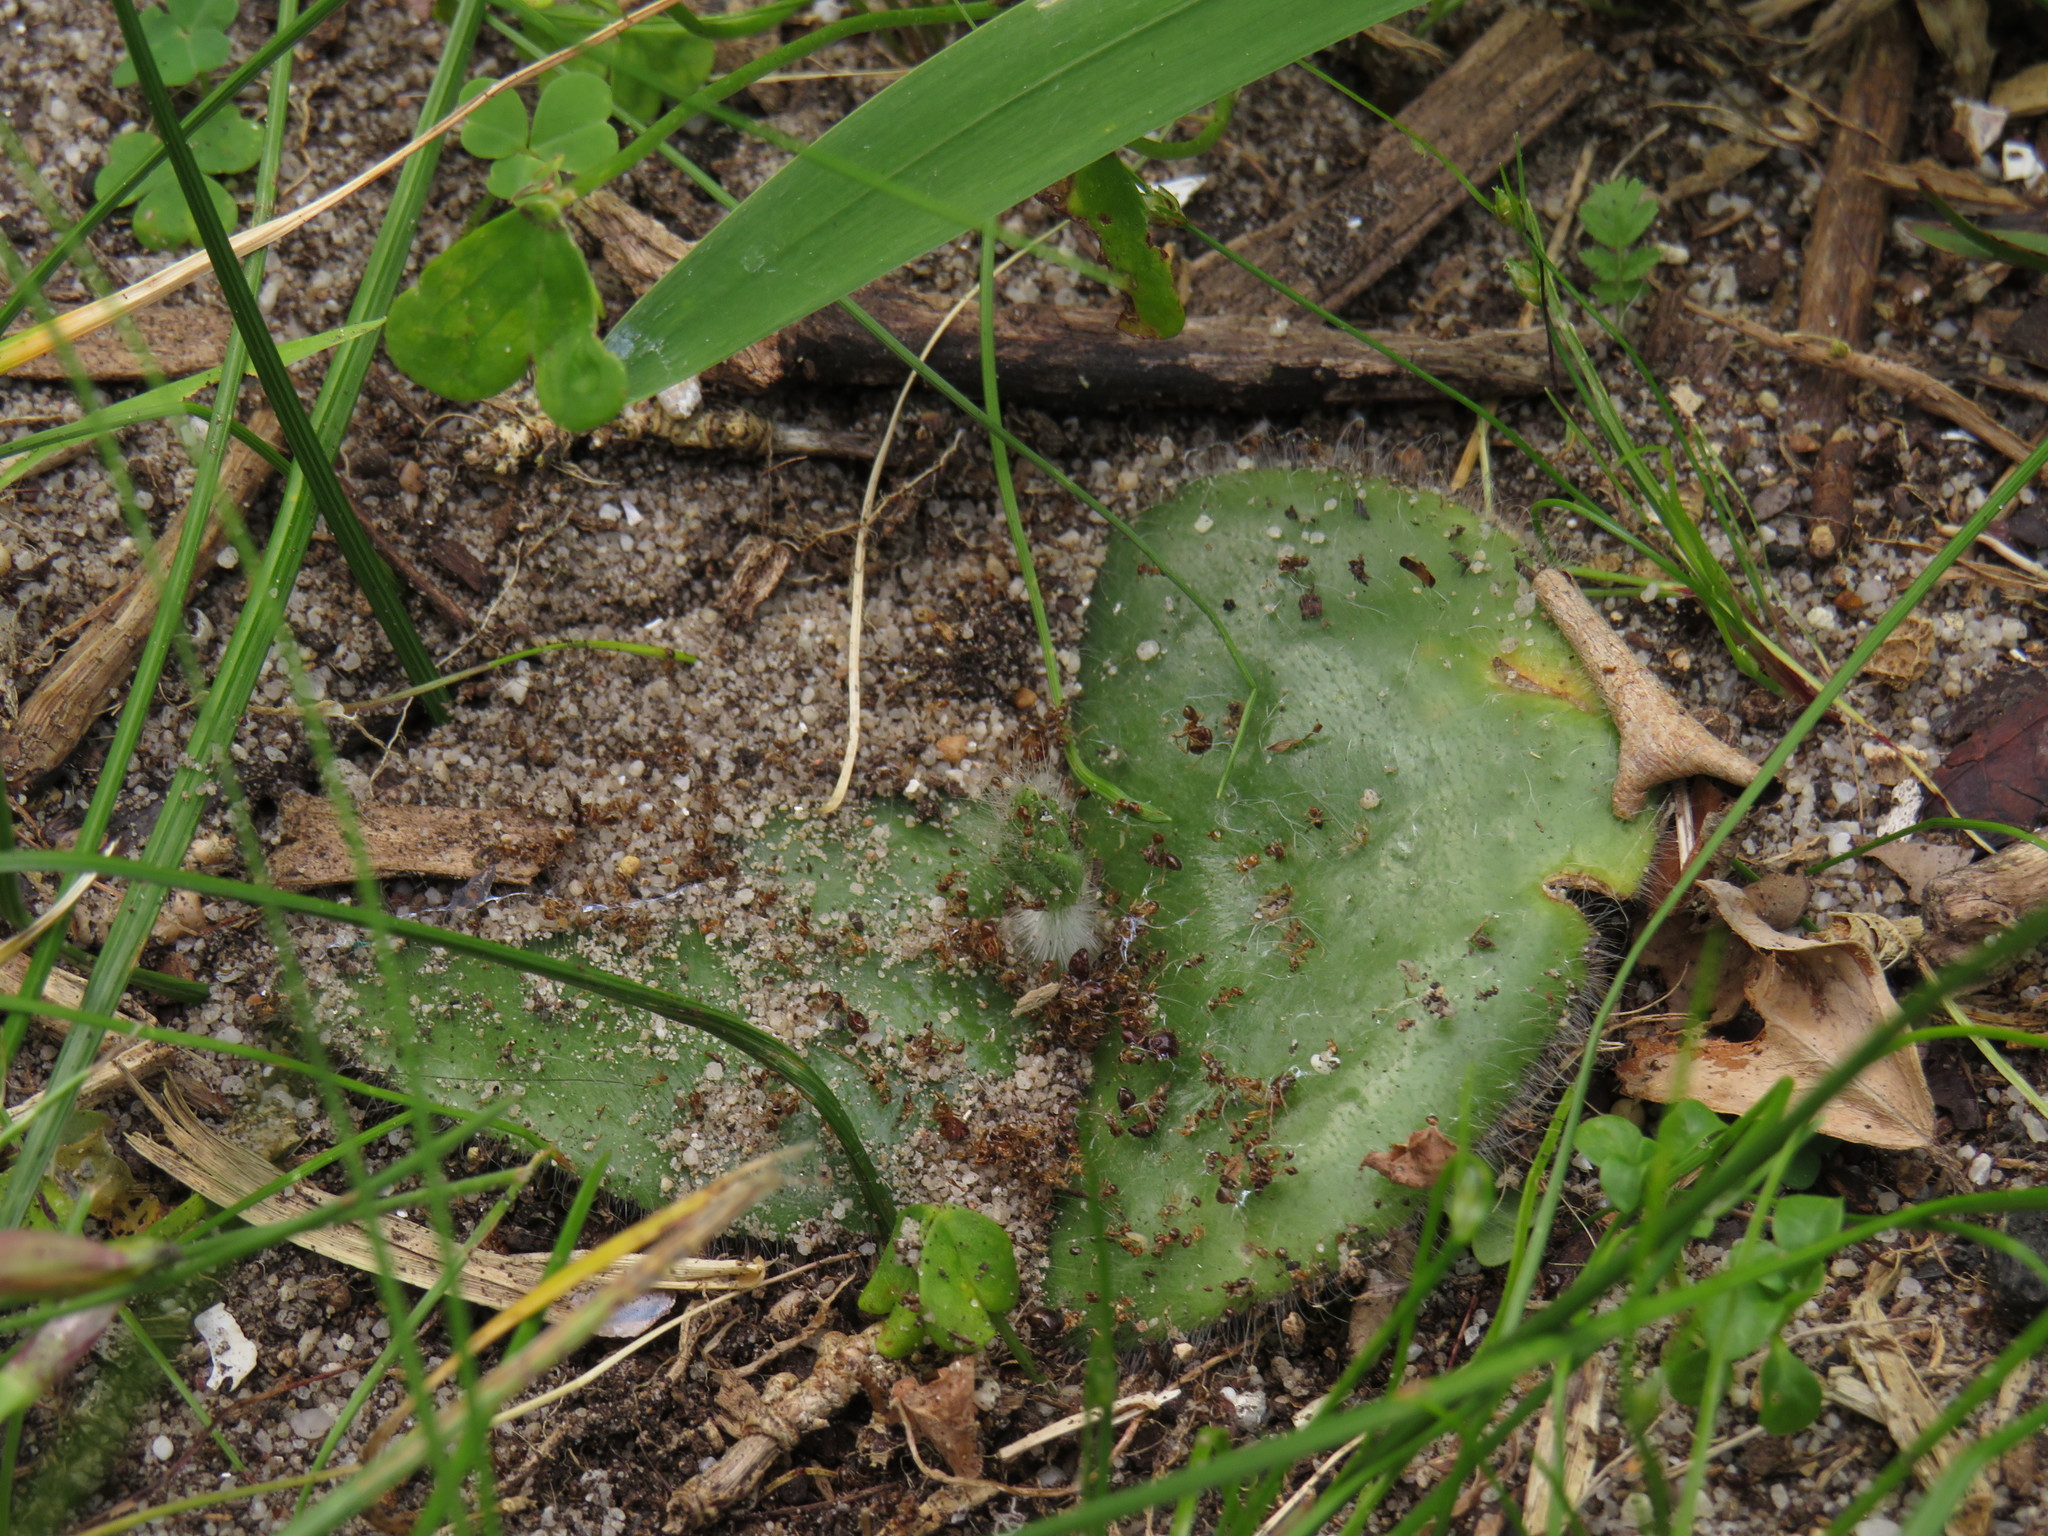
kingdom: Plantae
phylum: Tracheophyta
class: Liliopsida
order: Asparagales
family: Orchidaceae
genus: Holothrix
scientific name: Holothrix villosa
